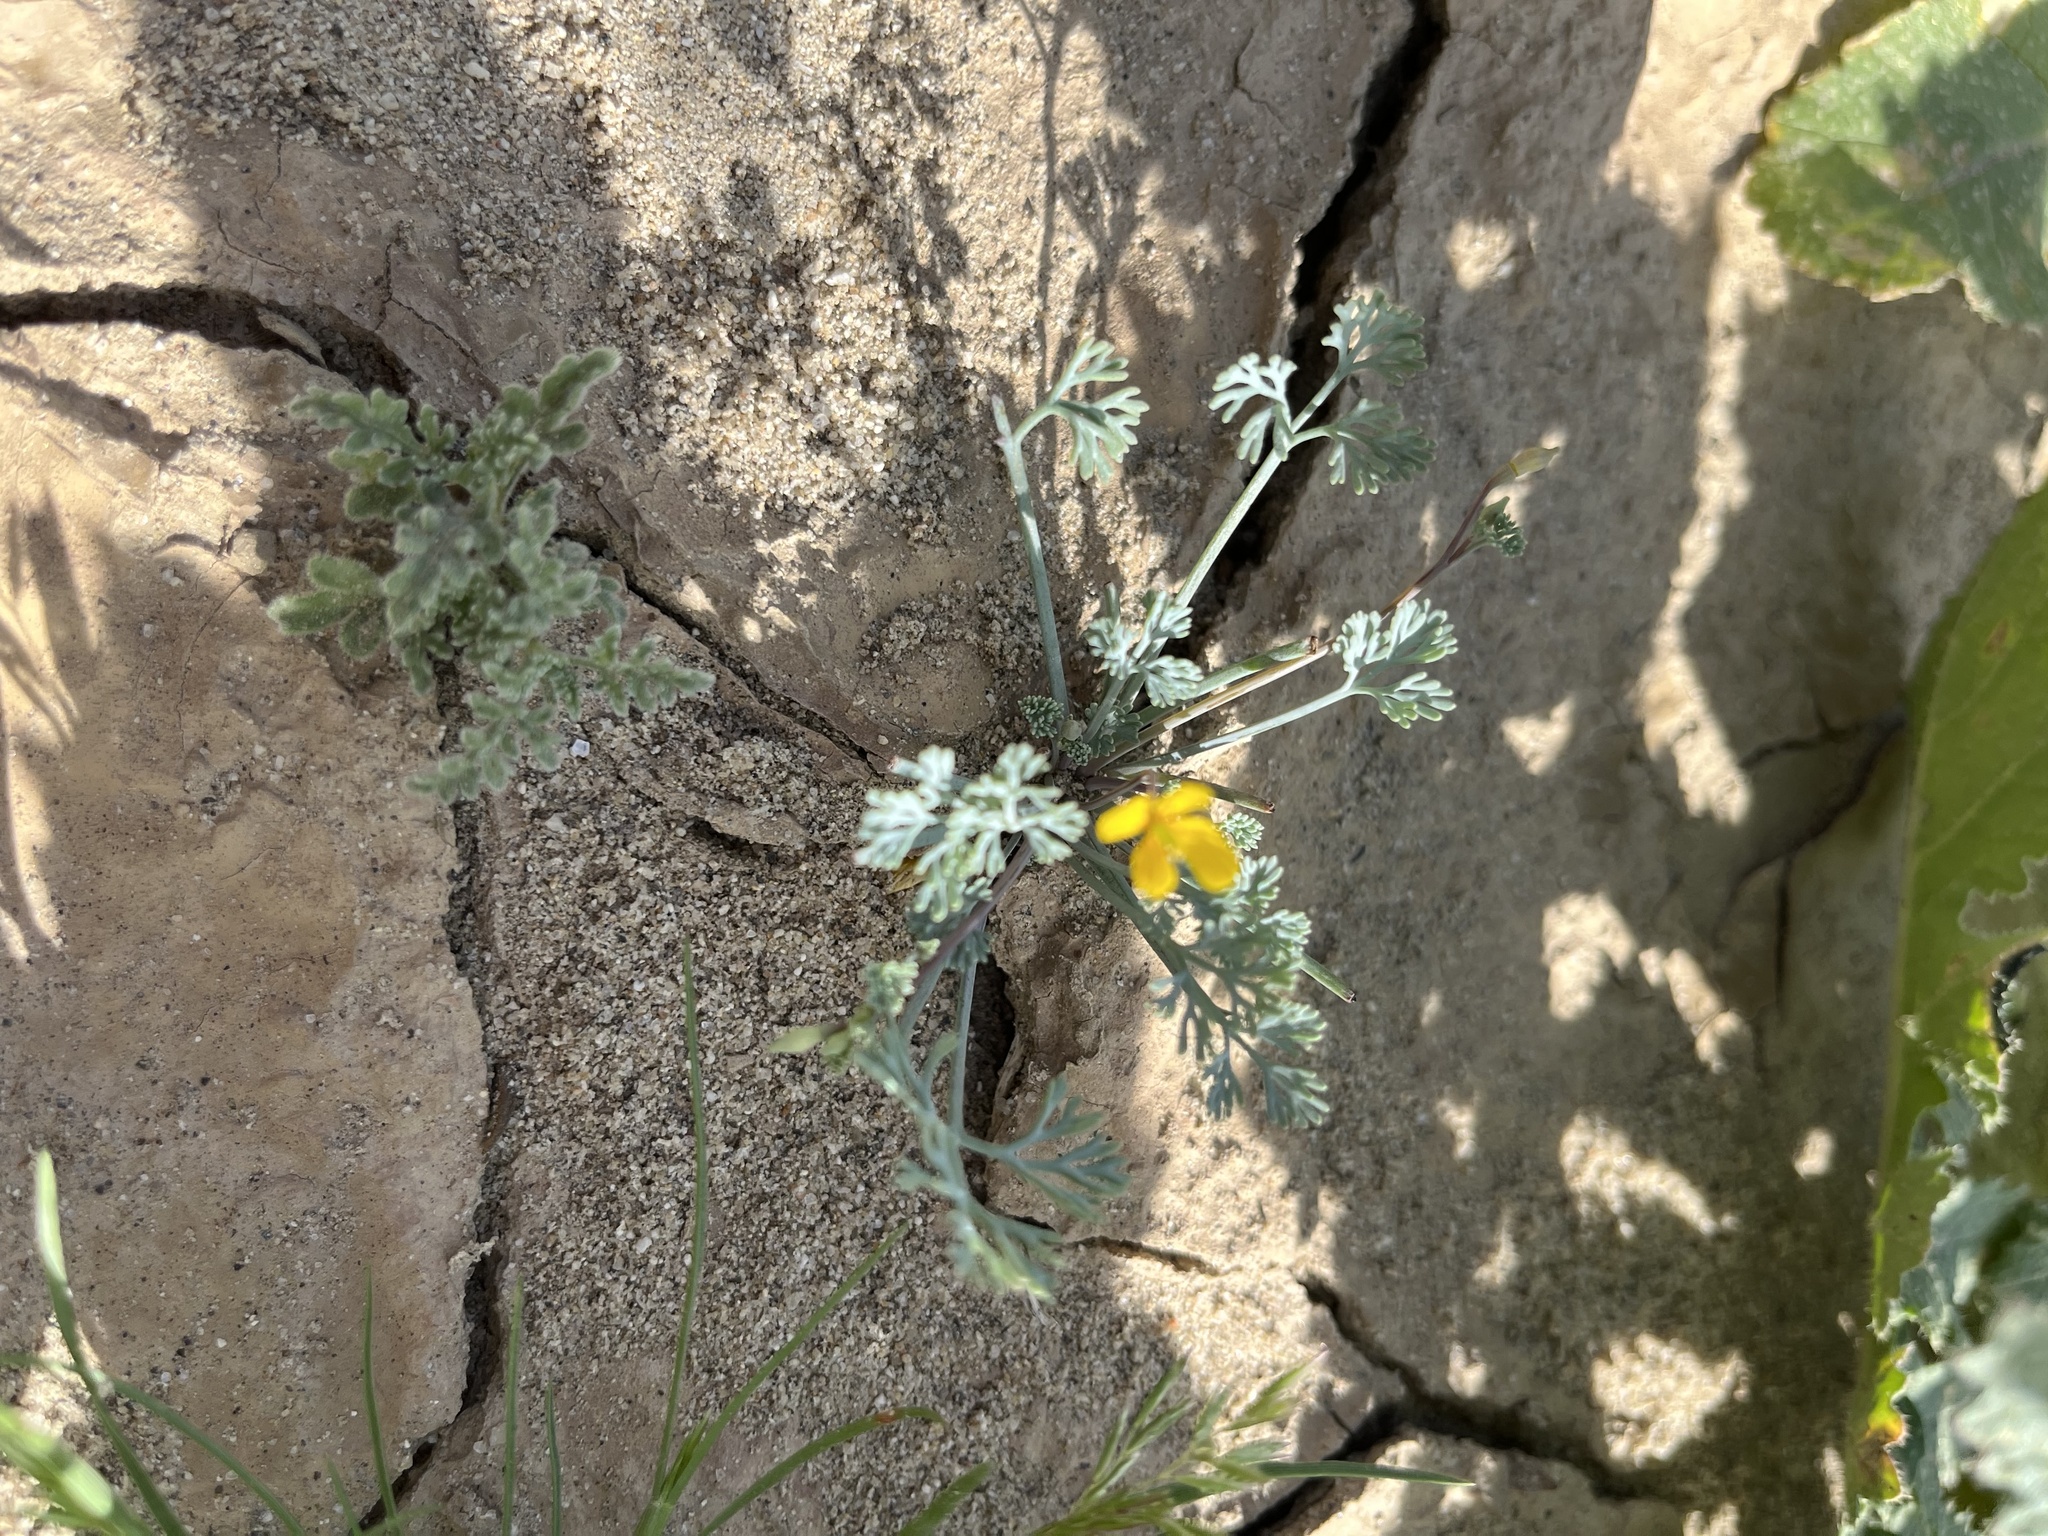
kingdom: Plantae
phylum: Tracheophyta
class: Magnoliopsida
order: Ranunculales
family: Papaveraceae
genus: Eschscholzia
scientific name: Eschscholzia minutiflora
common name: Small-flower california-poppy
